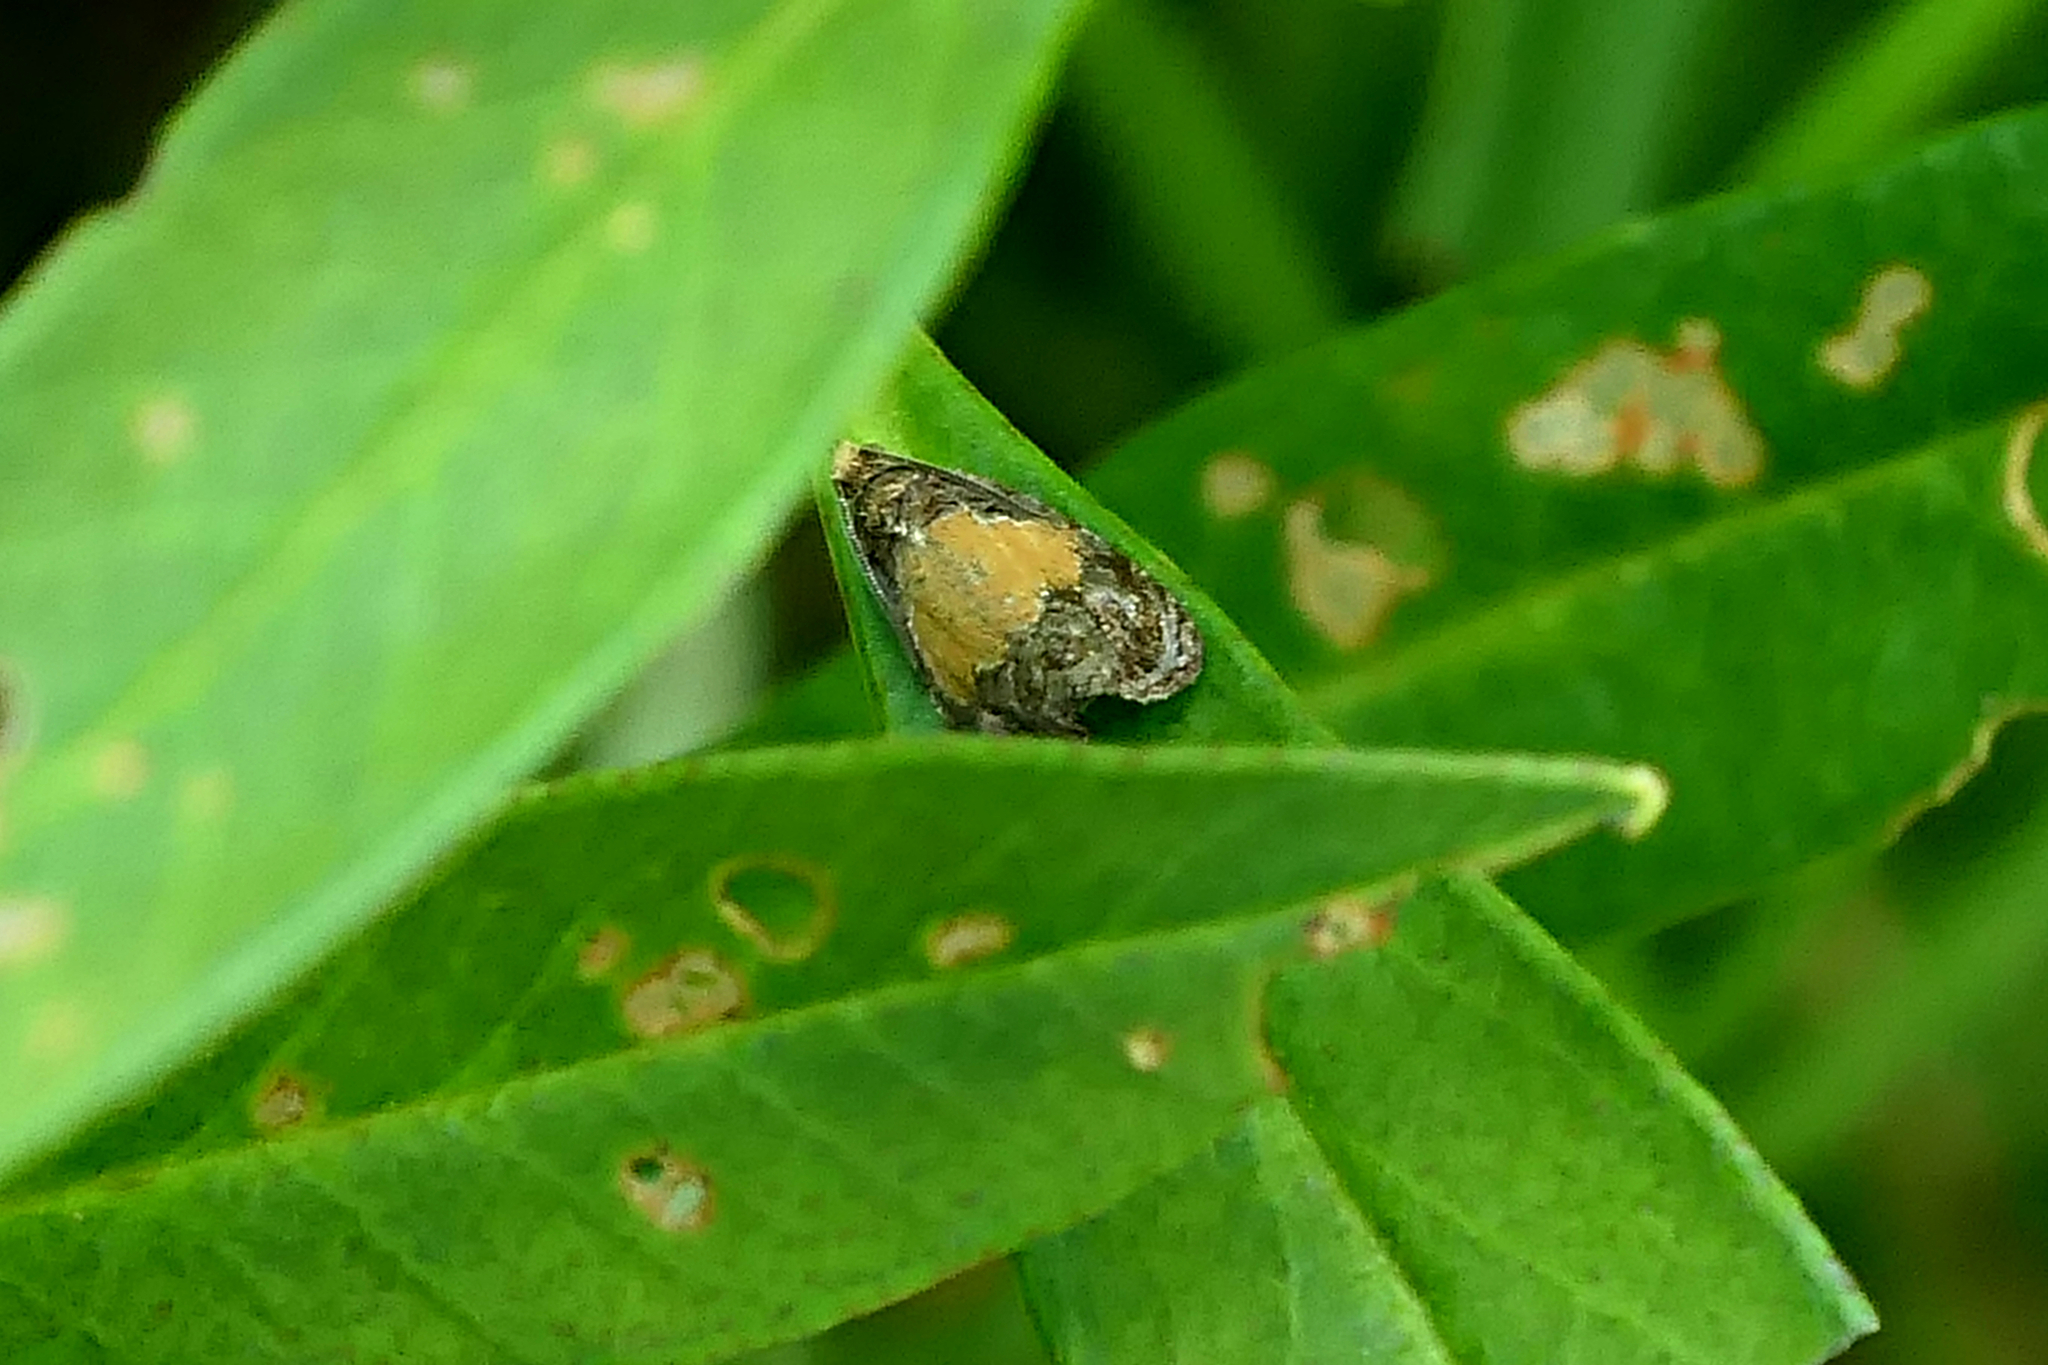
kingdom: Animalia
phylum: Arthropoda
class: Insecta
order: Lepidoptera
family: Tortricidae
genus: Olethreutes
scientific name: Olethreutes osmundana
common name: Fern olethreutes moth
